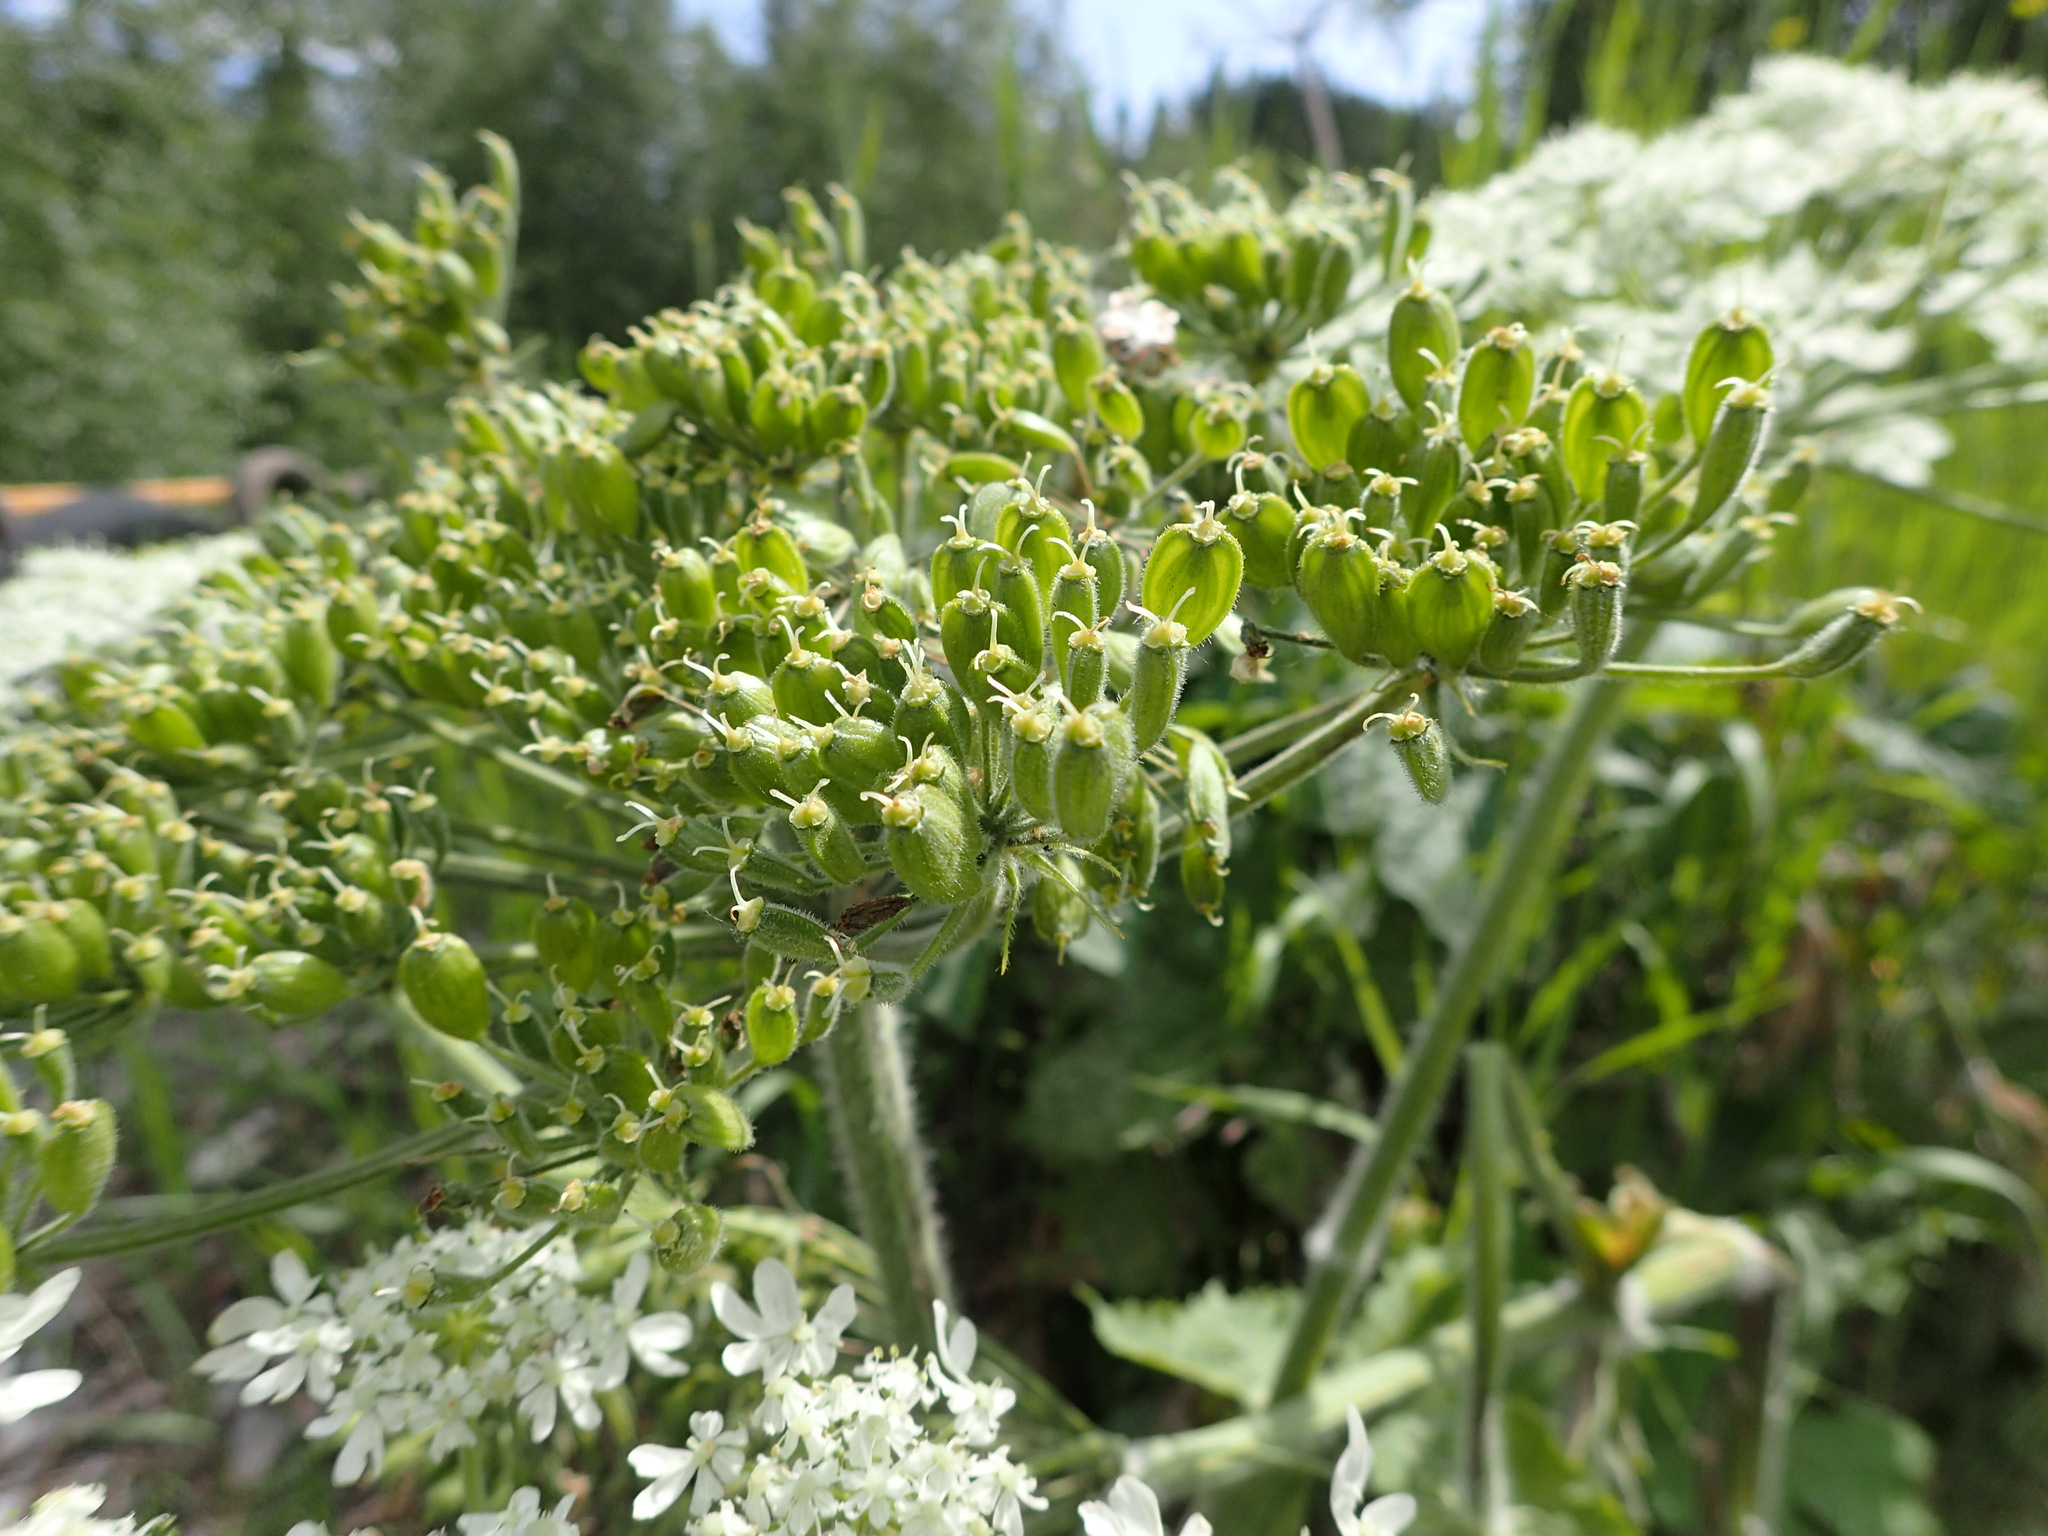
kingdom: Plantae
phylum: Tracheophyta
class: Magnoliopsida
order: Apiales
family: Apiaceae
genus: Heracleum
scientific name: Heracleum maximum
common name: American cow parsnip
